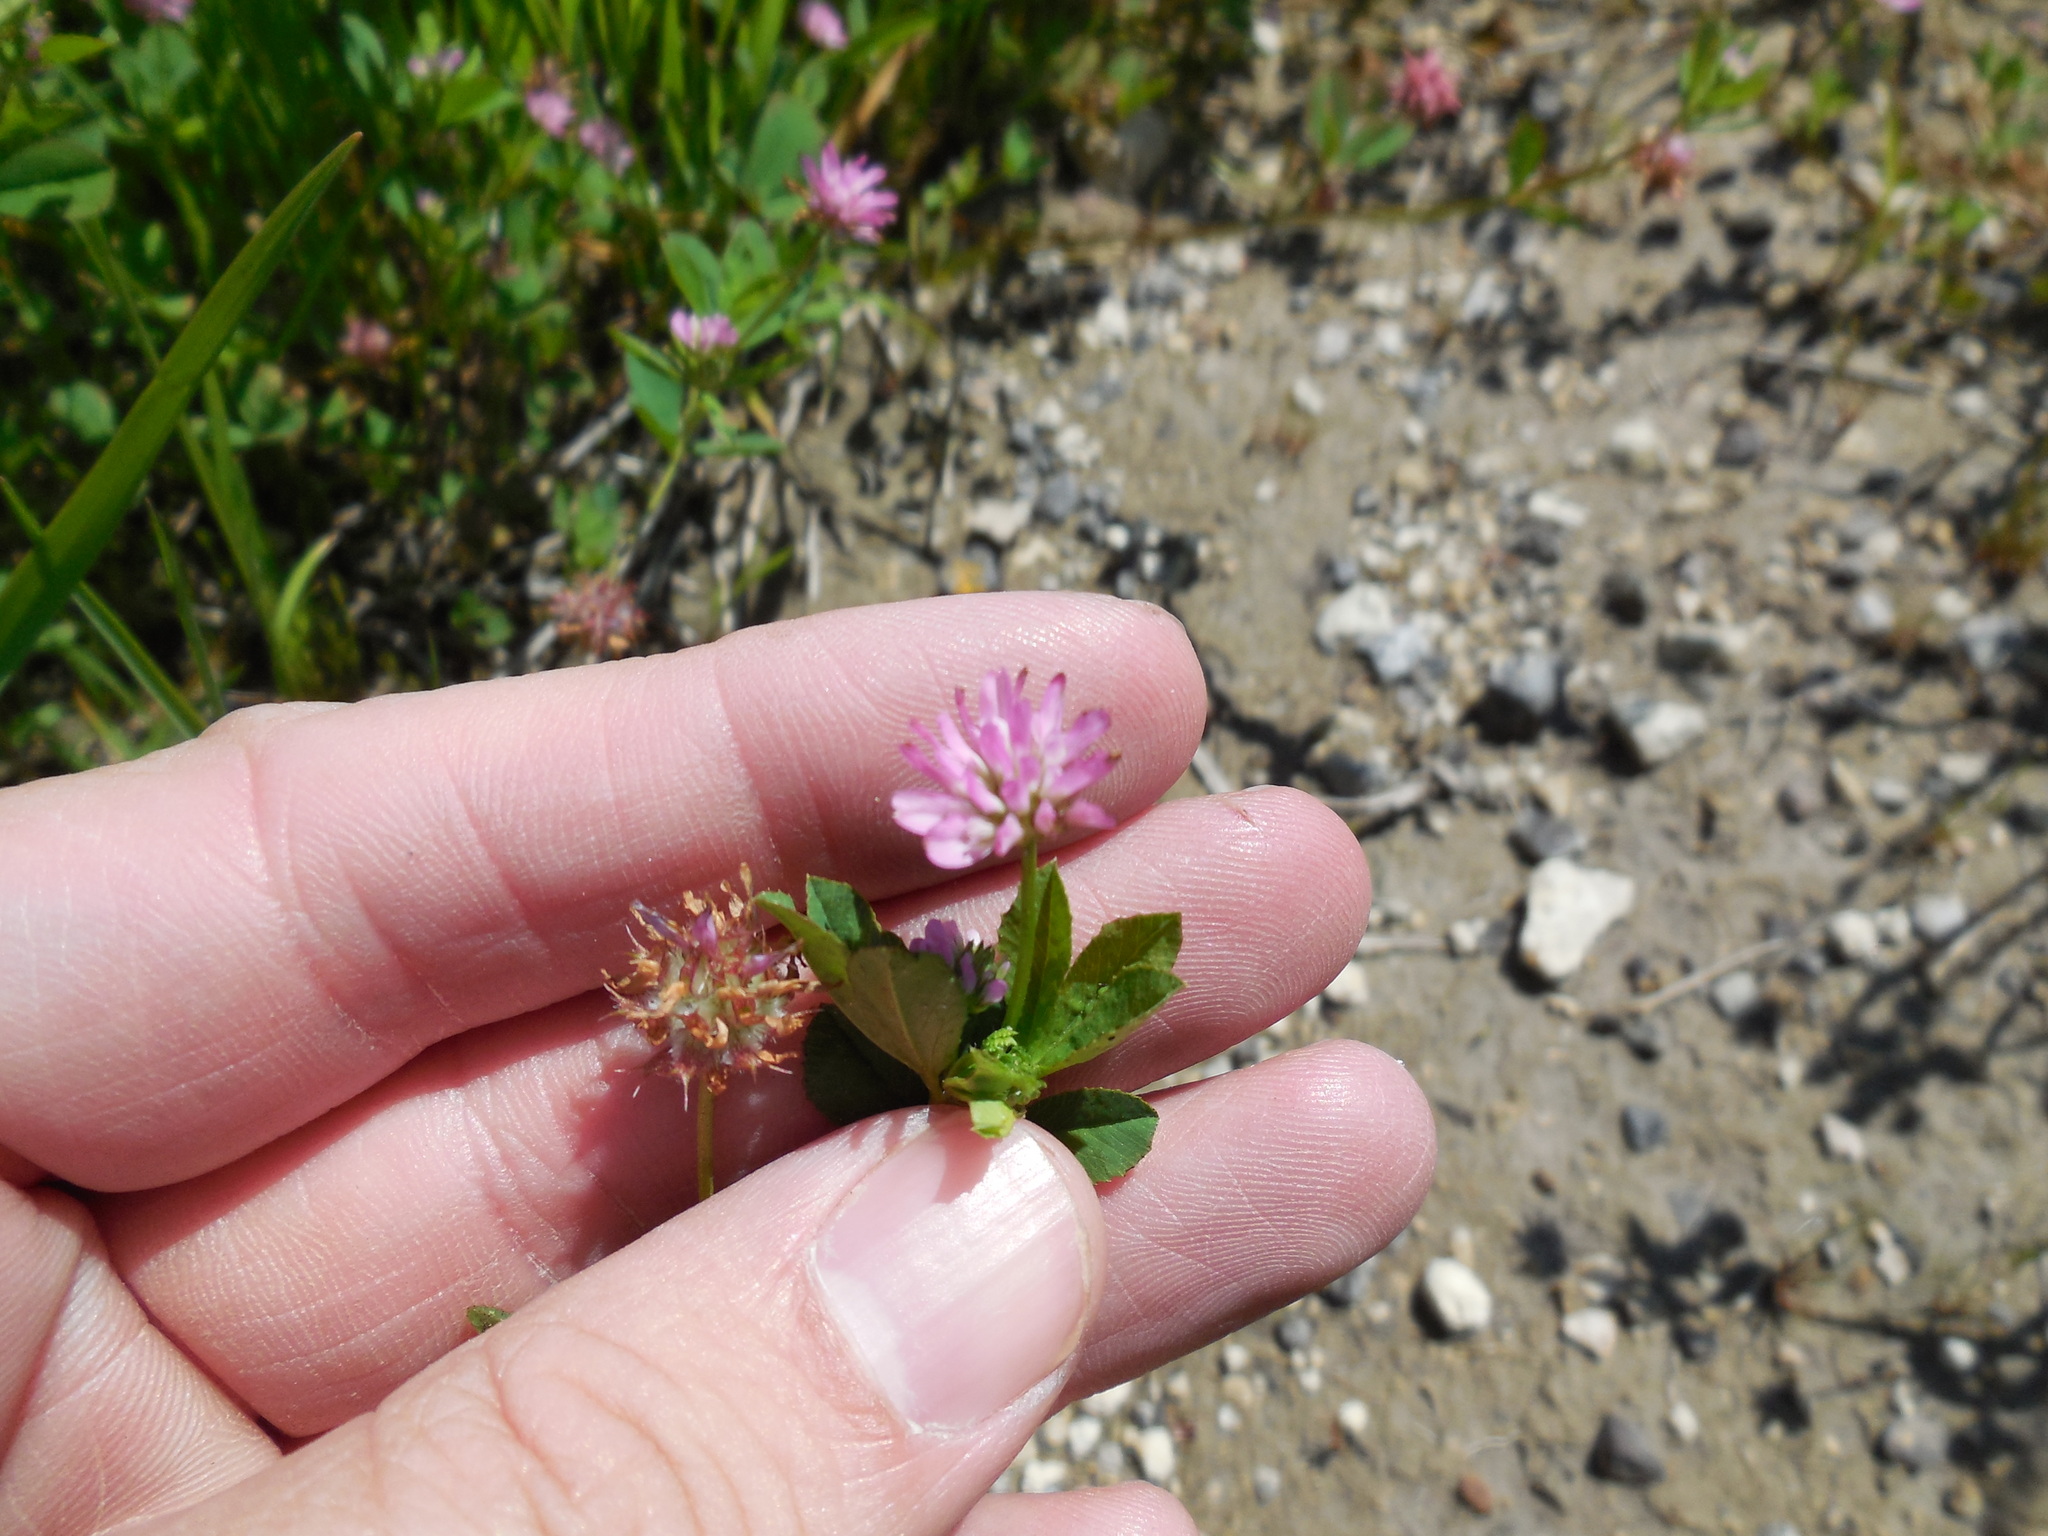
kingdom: Plantae
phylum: Tracheophyta
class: Magnoliopsida
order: Fabales
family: Fabaceae
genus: Trifolium
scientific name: Trifolium resupinatum
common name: Reversed clover
